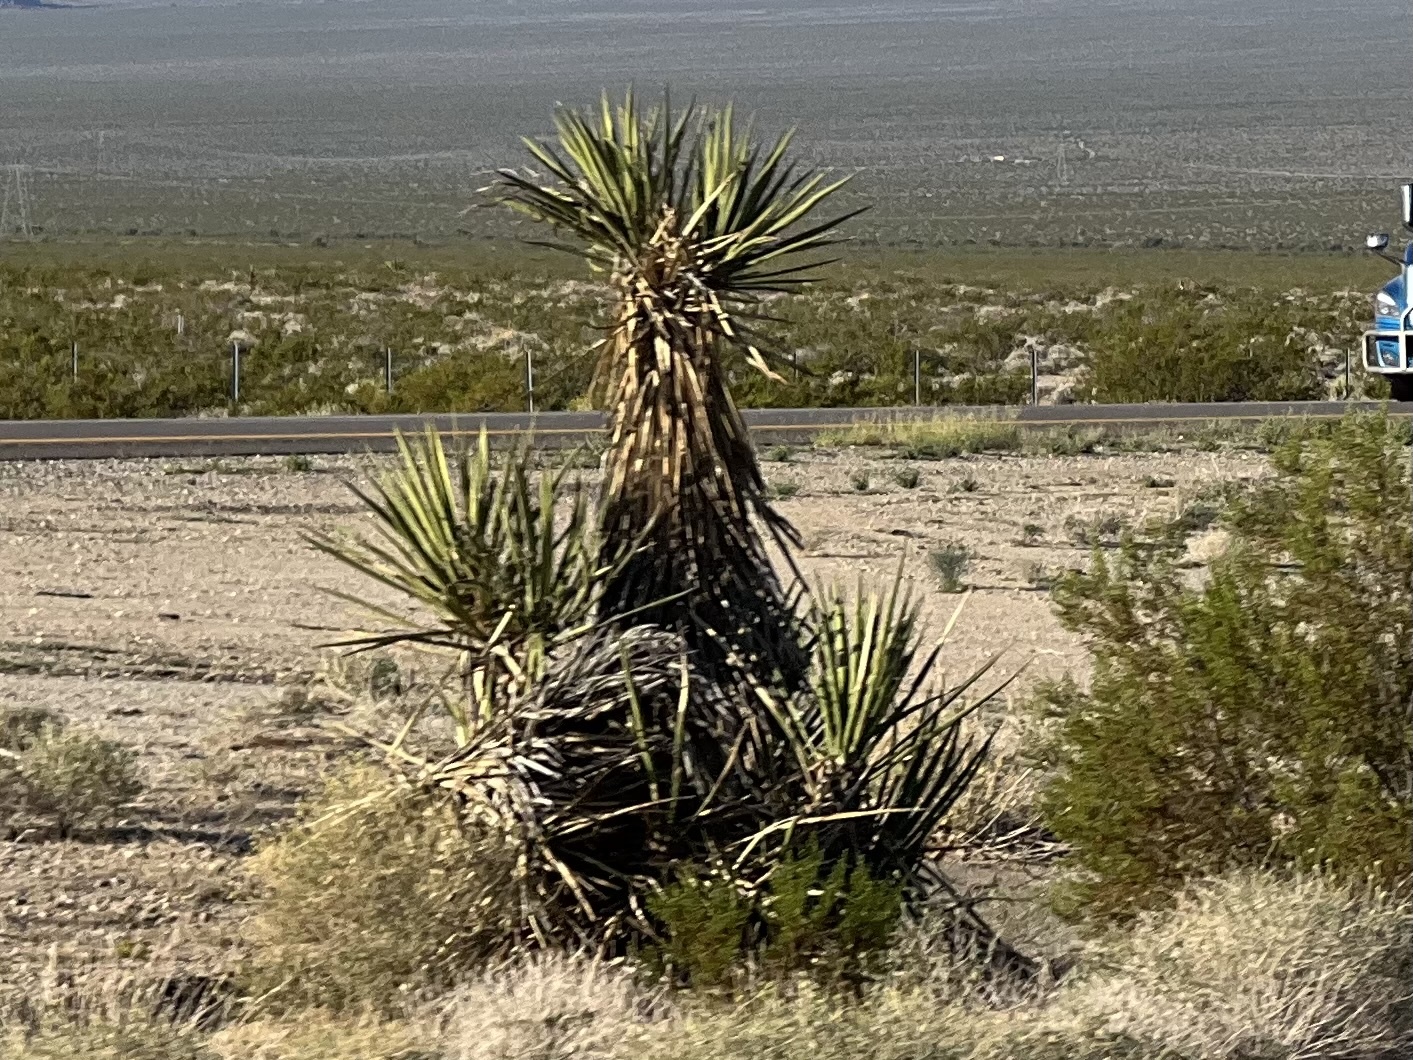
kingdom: Plantae
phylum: Tracheophyta
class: Liliopsida
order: Asparagales
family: Asparagaceae
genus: Yucca
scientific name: Yucca schidigera
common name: Mojave yucca
